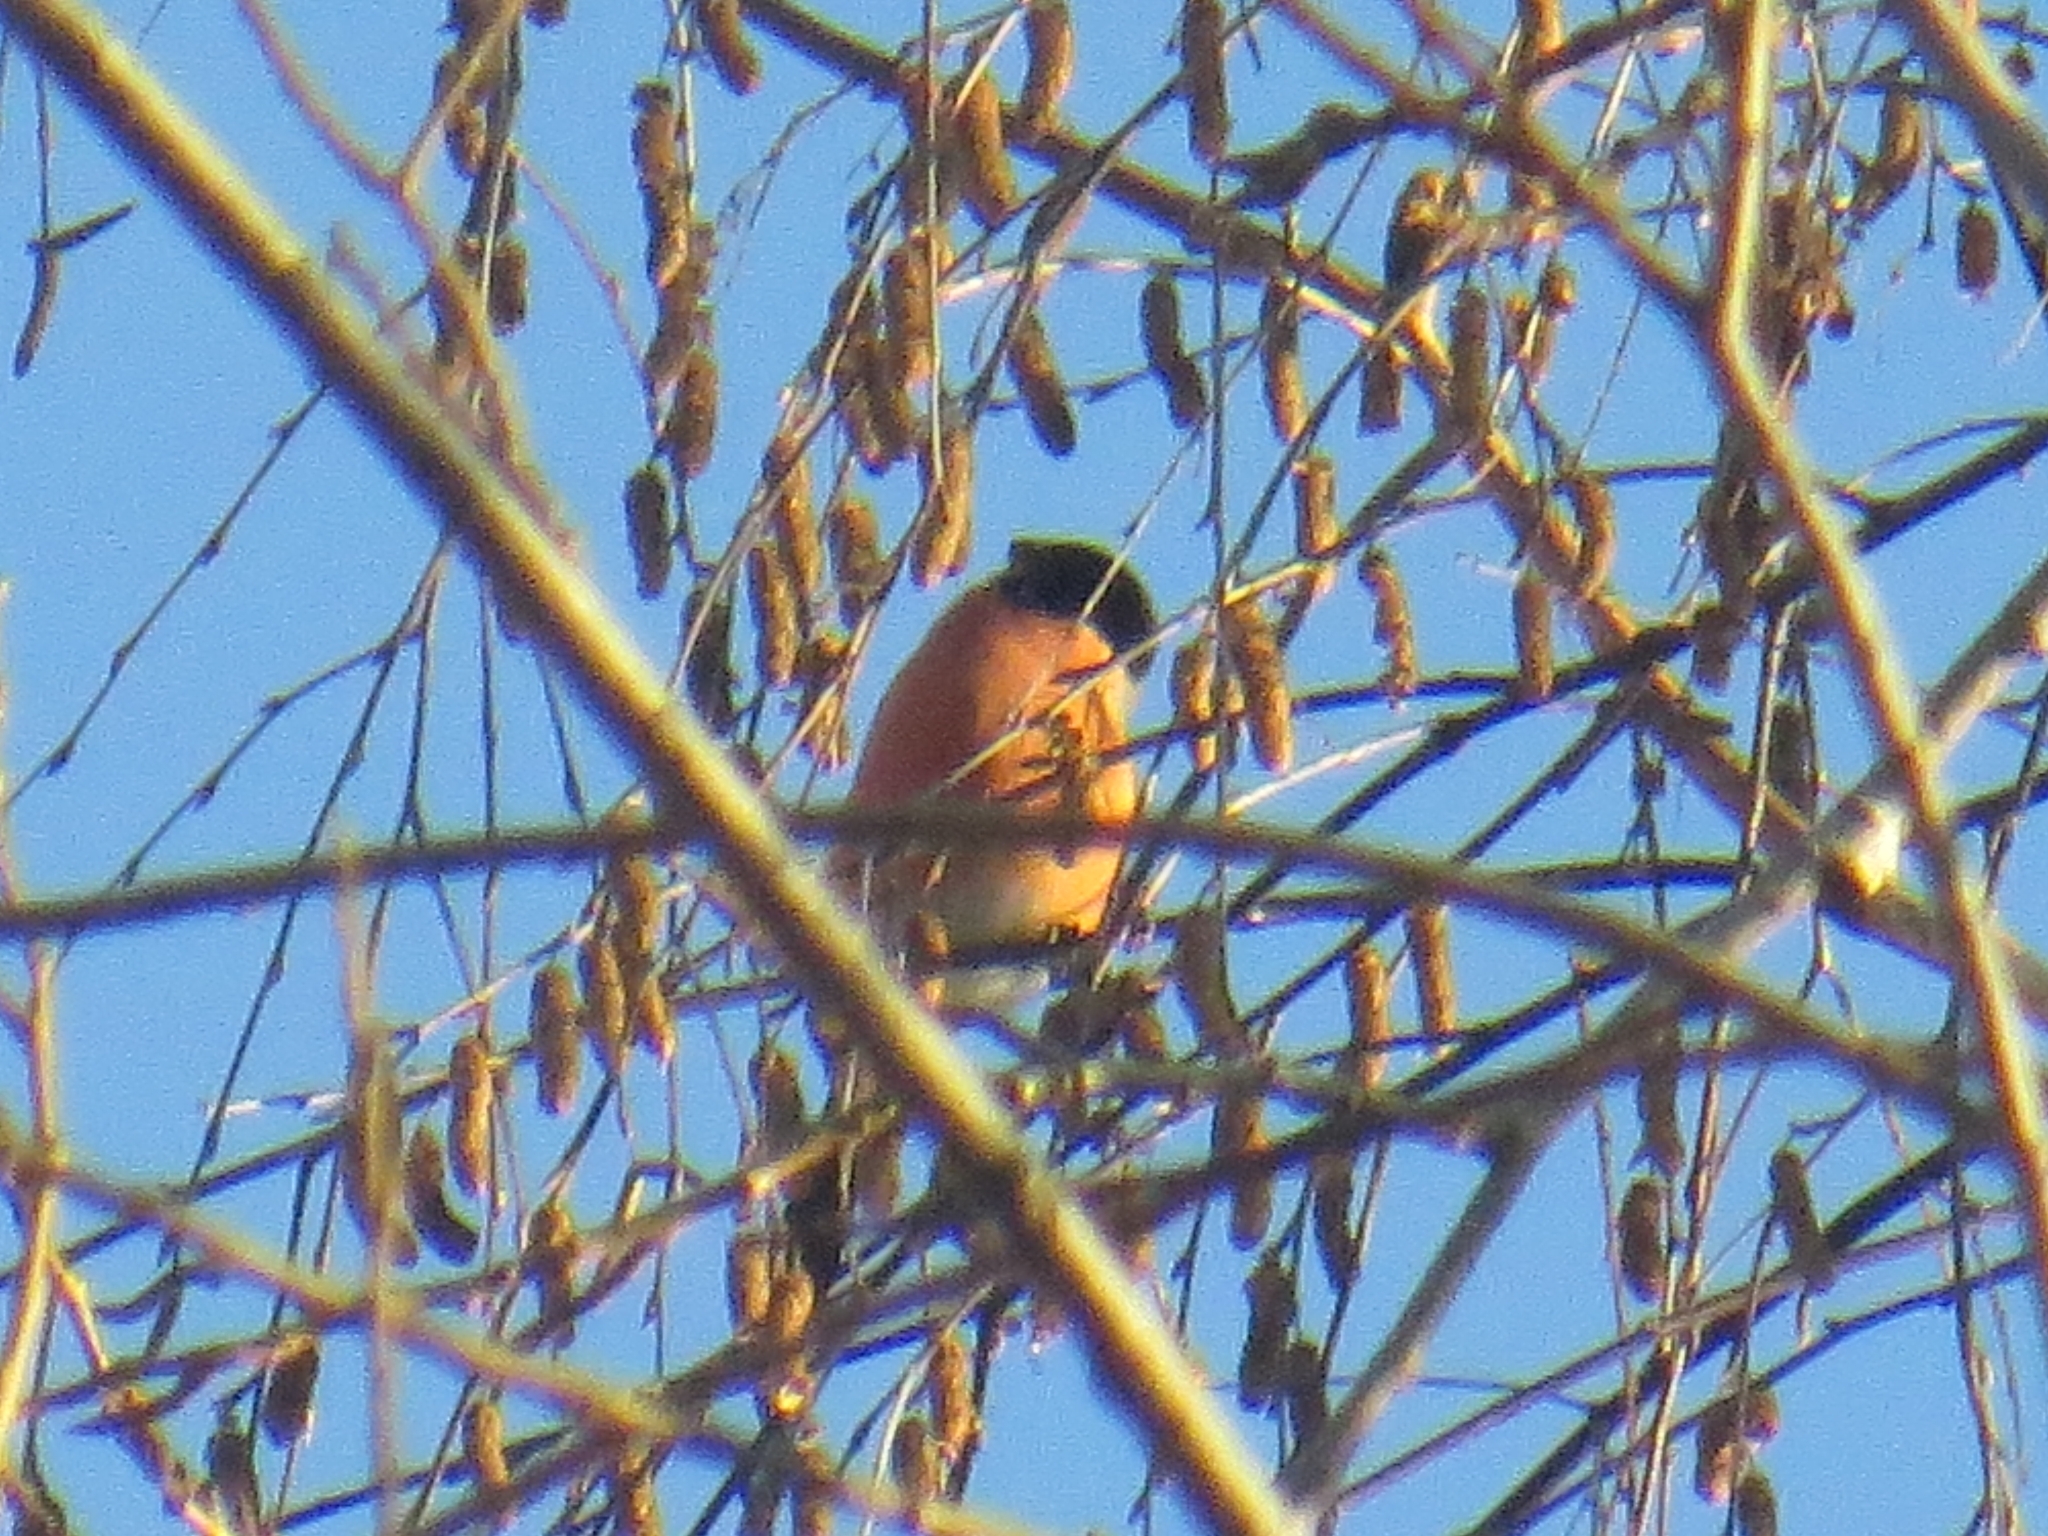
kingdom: Animalia
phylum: Chordata
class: Aves
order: Passeriformes
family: Fringillidae
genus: Pyrrhula
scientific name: Pyrrhula pyrrhula
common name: Eurasian bullfinch
